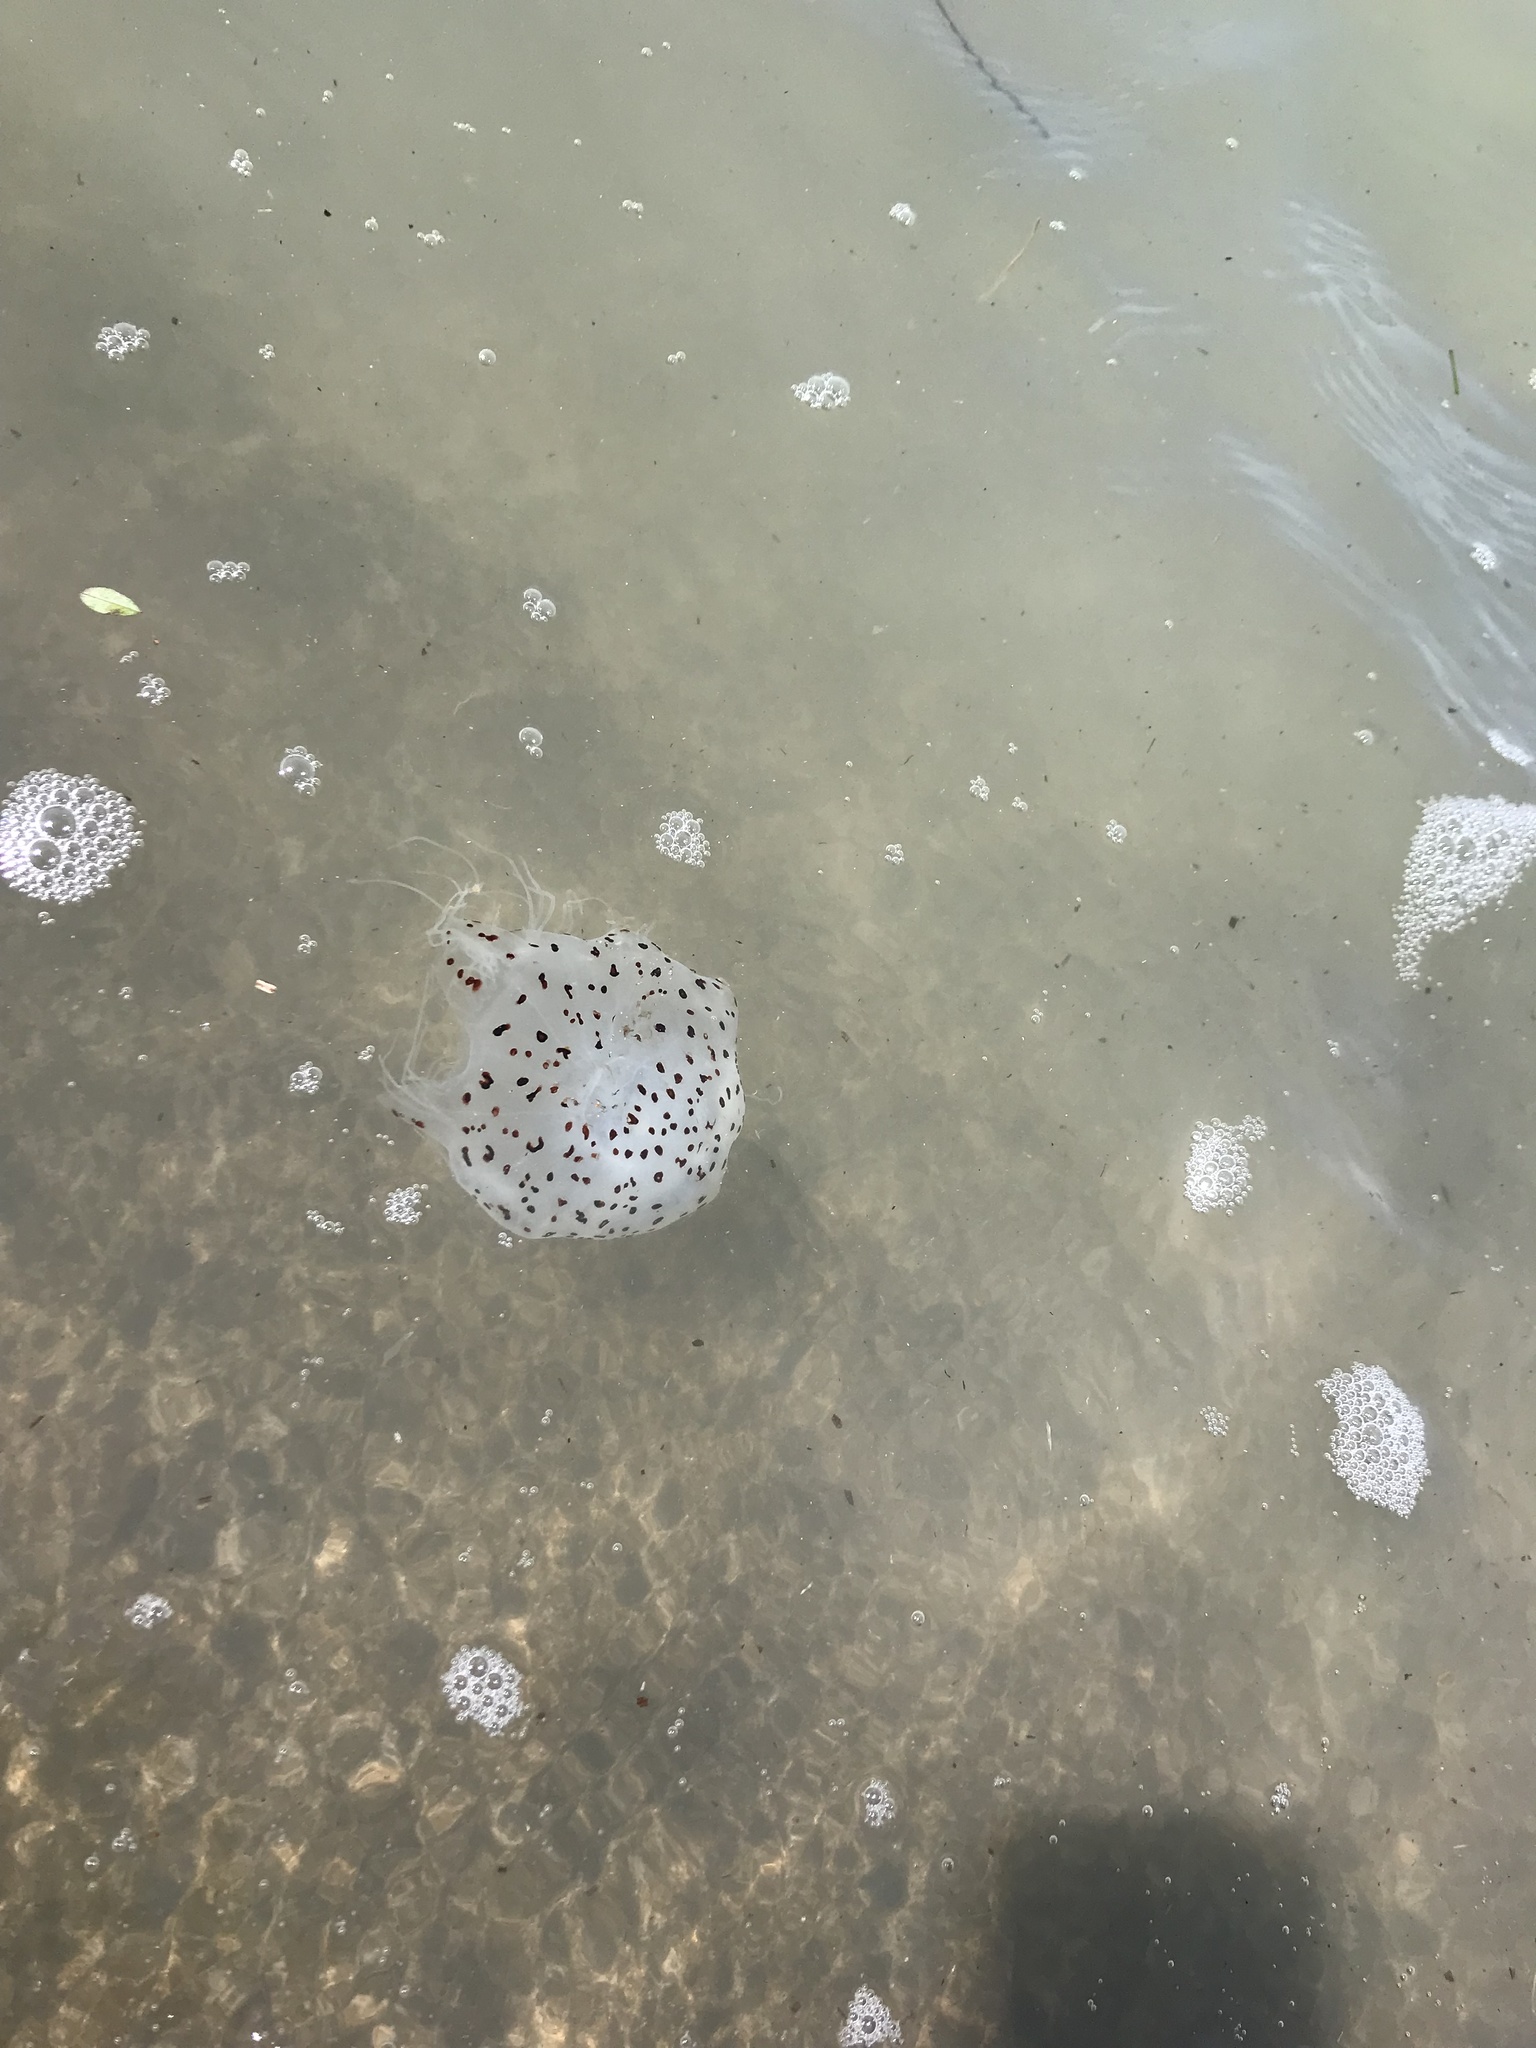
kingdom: Animalia
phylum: Cnidaria
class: Scyphozoa
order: Semaeostomeae
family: Cyaneidae
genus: Desmonema
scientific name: Desmonema gaudichaudi
